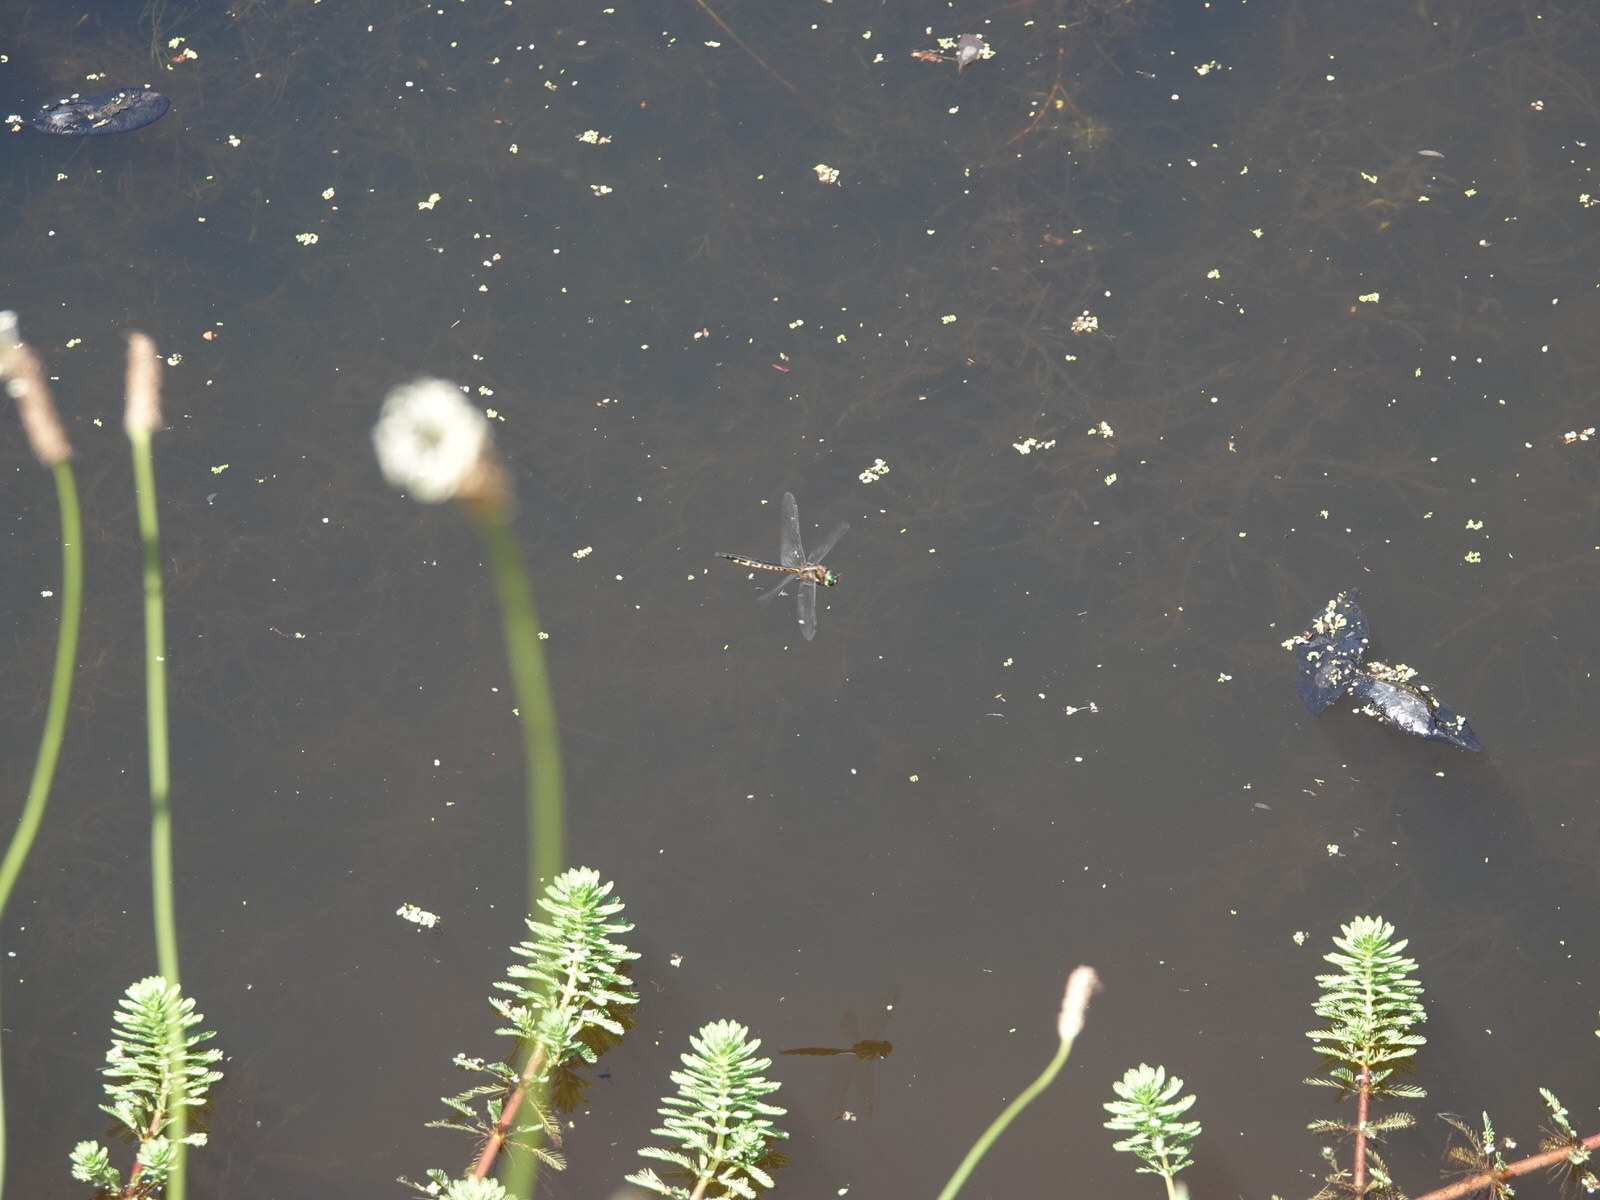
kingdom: Animalia
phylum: Arthropoda
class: Insecta
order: Odonata
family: Corduliidae
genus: Hemicordulia
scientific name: Hemicordulia australiae
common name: Sentry dragonfly
